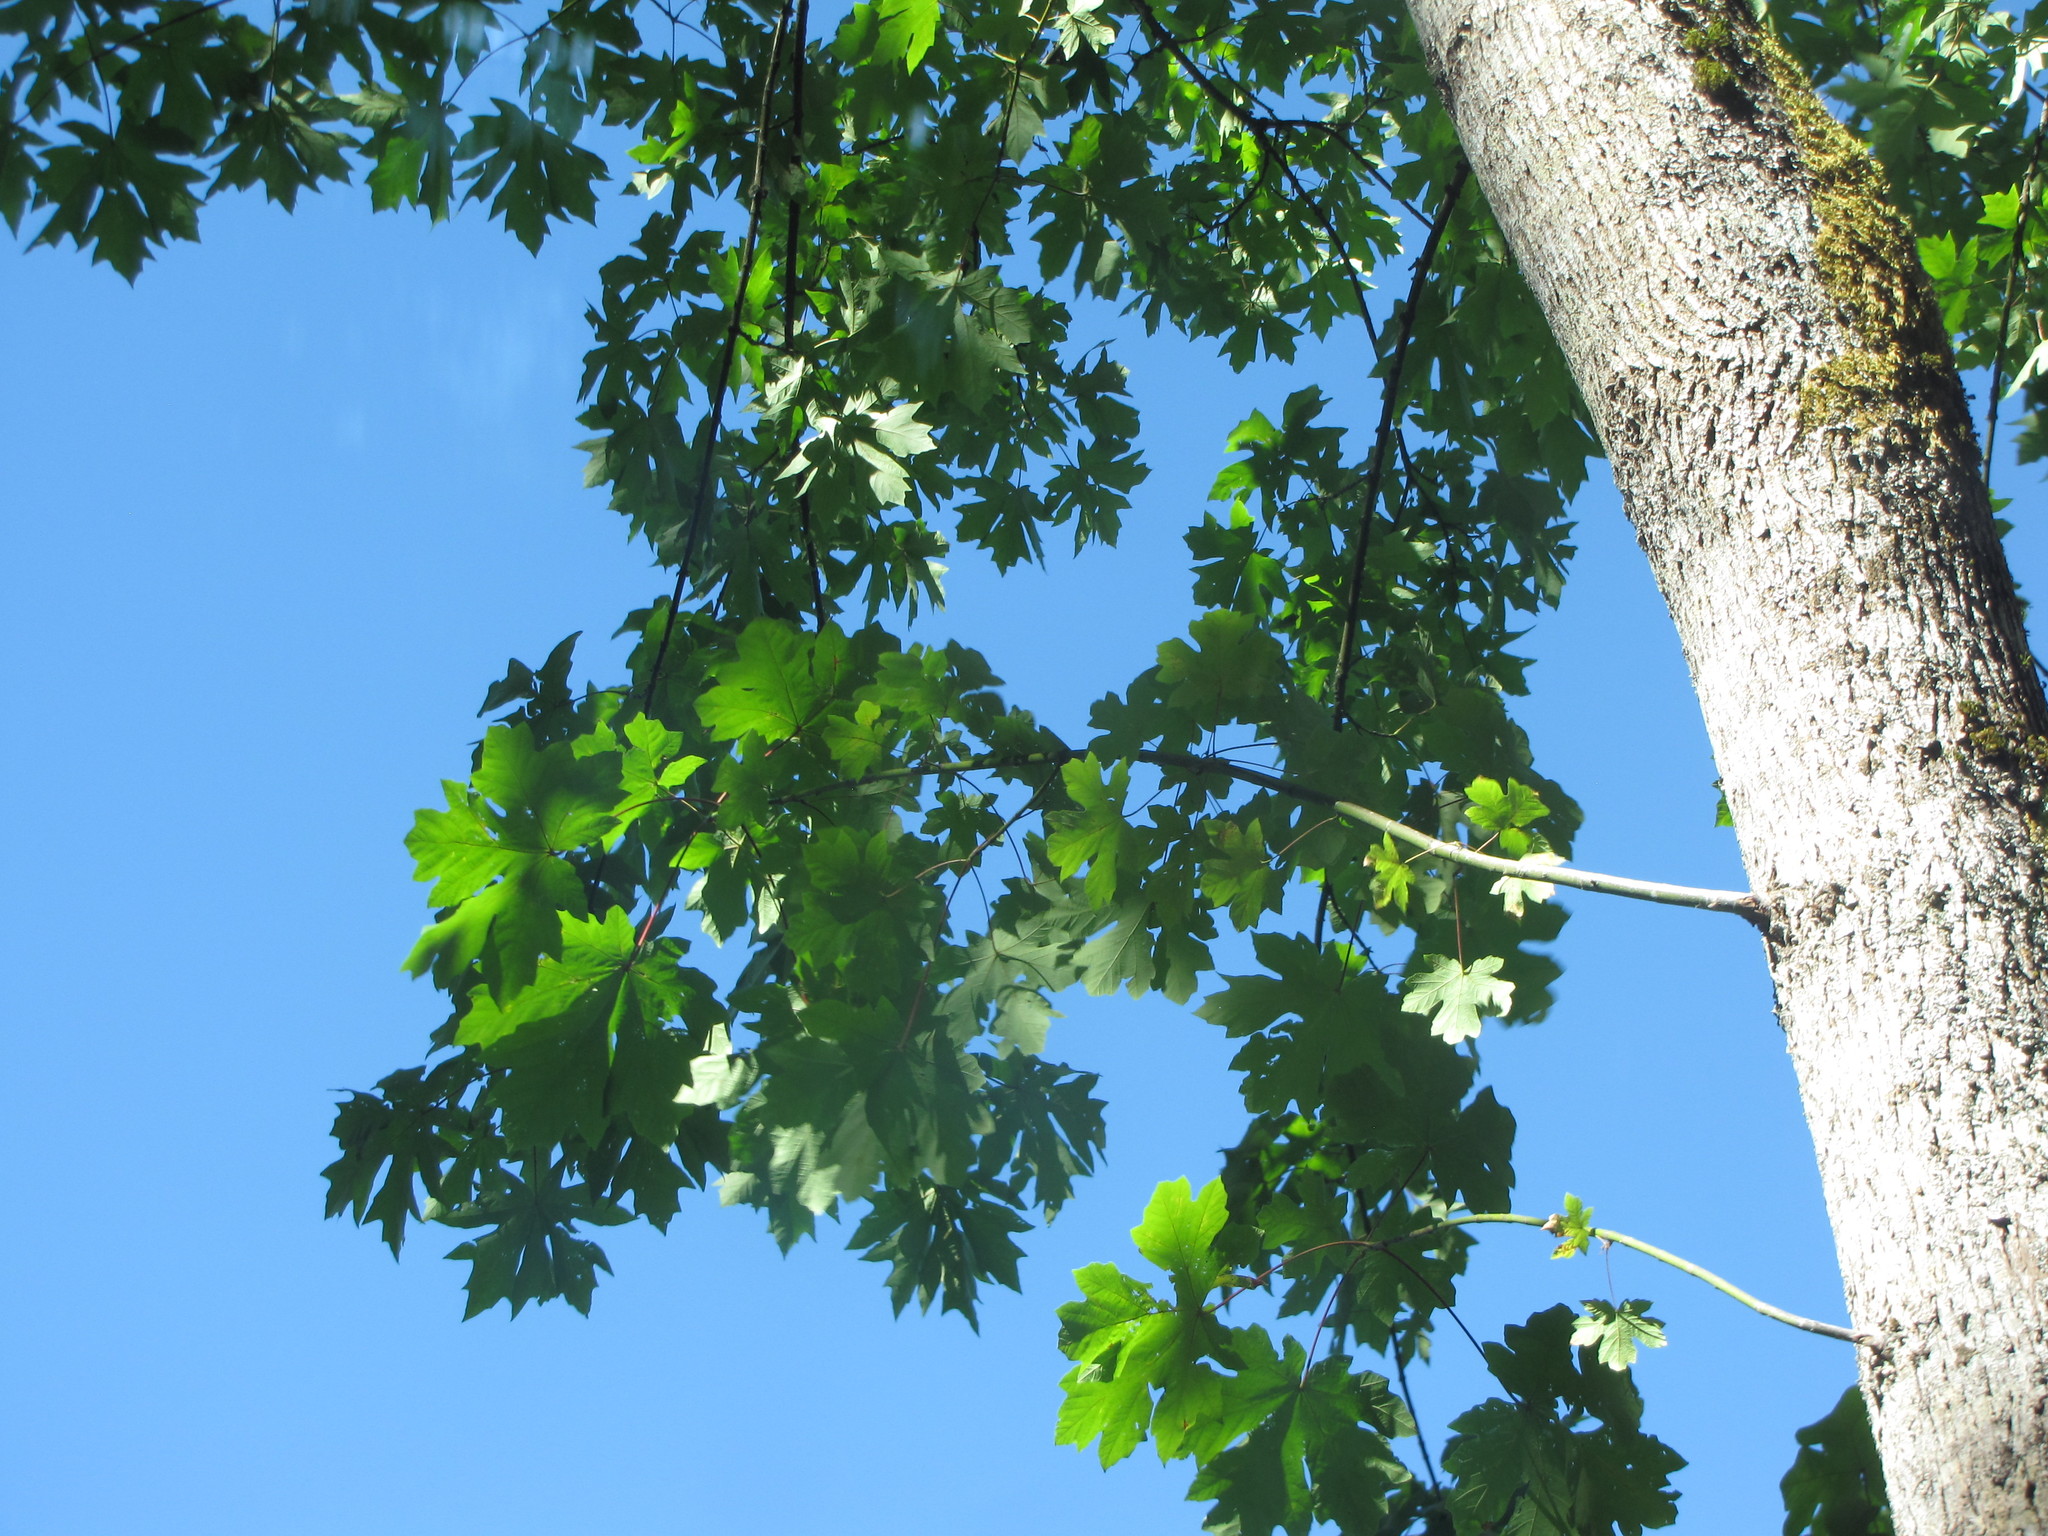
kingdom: Plantae
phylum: Tracheophyta
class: Magnoliopsida
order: Sapindales
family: Sapindaceae
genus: Acer
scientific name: Acer macrophyllum
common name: Oregon maple
